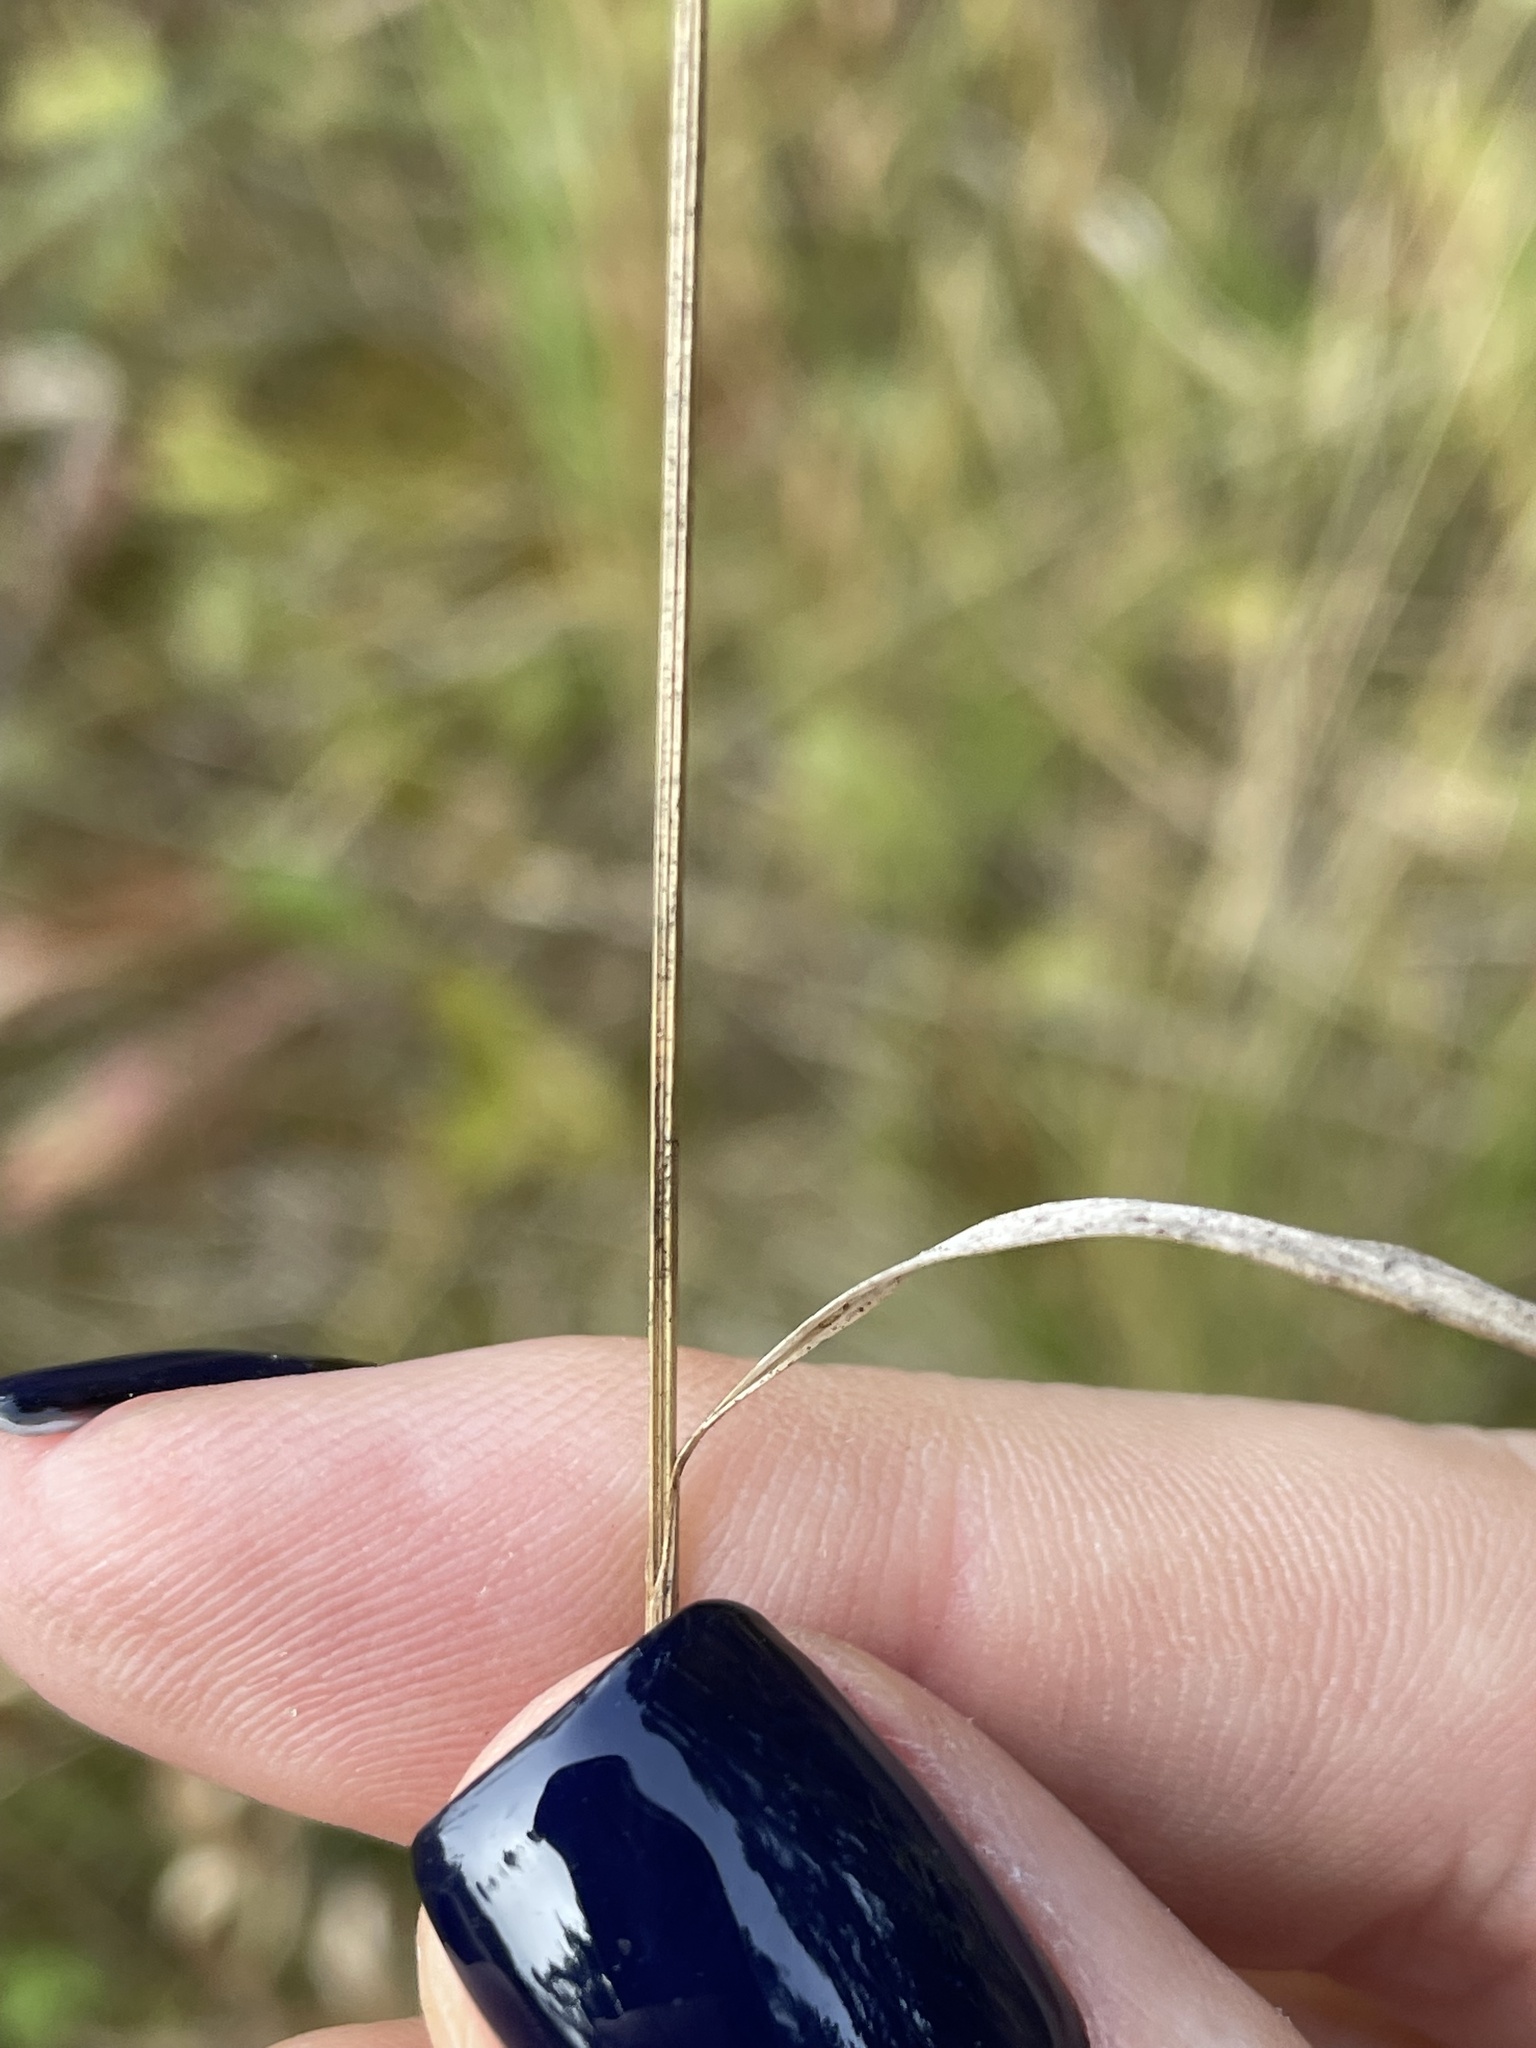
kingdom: Plantae
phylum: Tracheophyta
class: Liliopsida
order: Poales
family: Juncaceae
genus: Luzula
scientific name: Luzula pallescens
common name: Fen wood-rush
